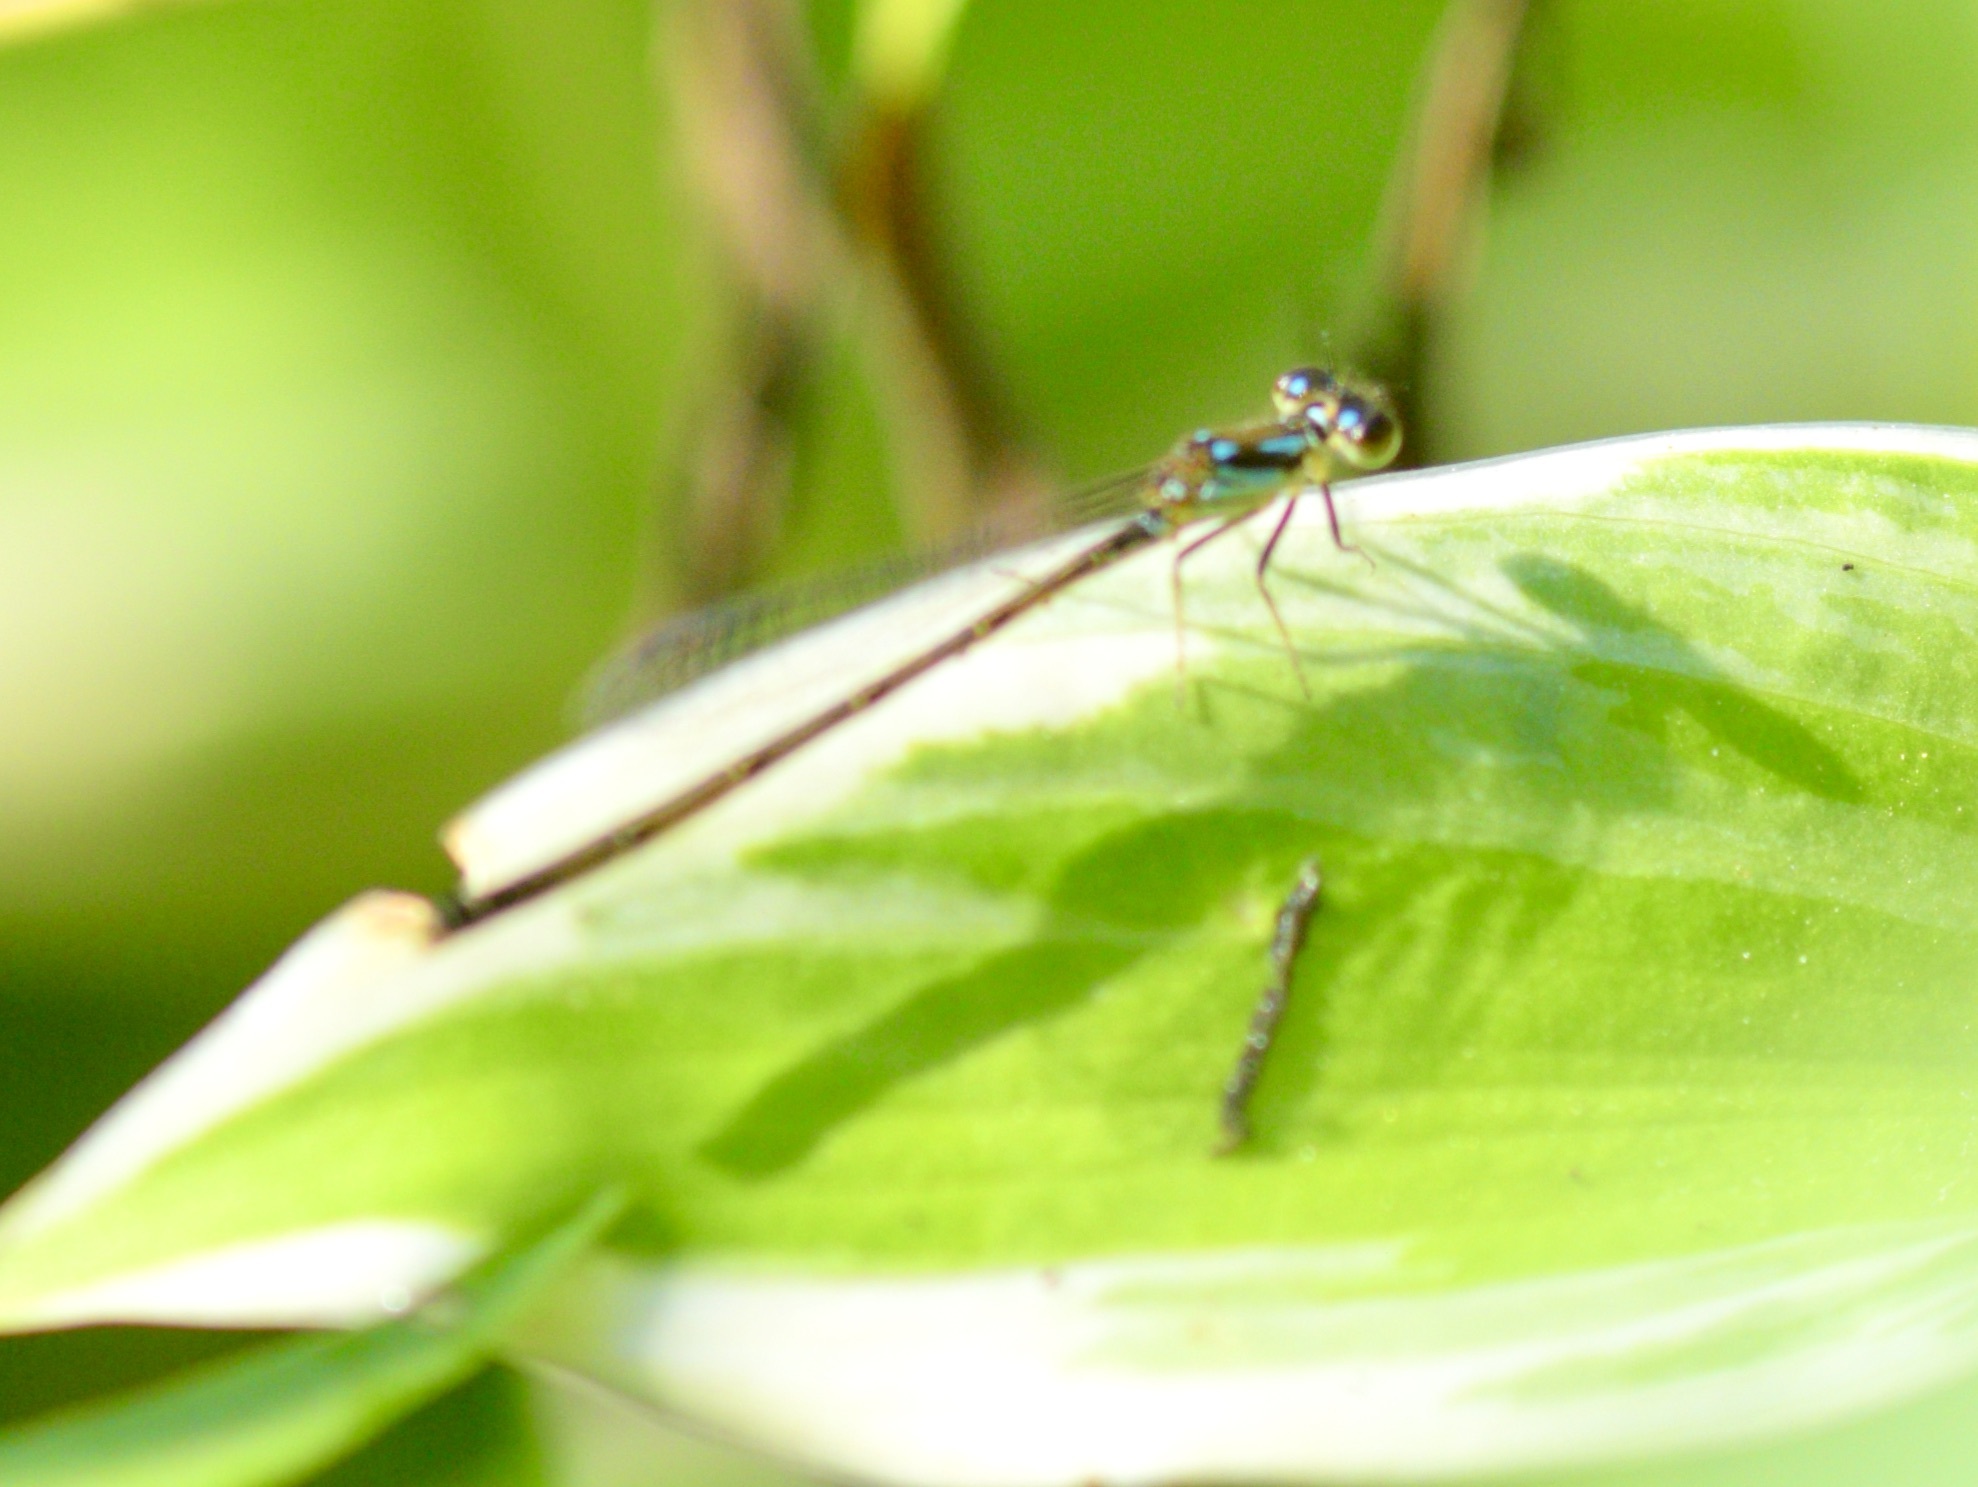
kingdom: Animalia
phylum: Arthropoda
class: Insecta
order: Odonata
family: Coenagrionidae
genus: Ischnura
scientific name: Ischnura posita
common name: Fragile forktail
